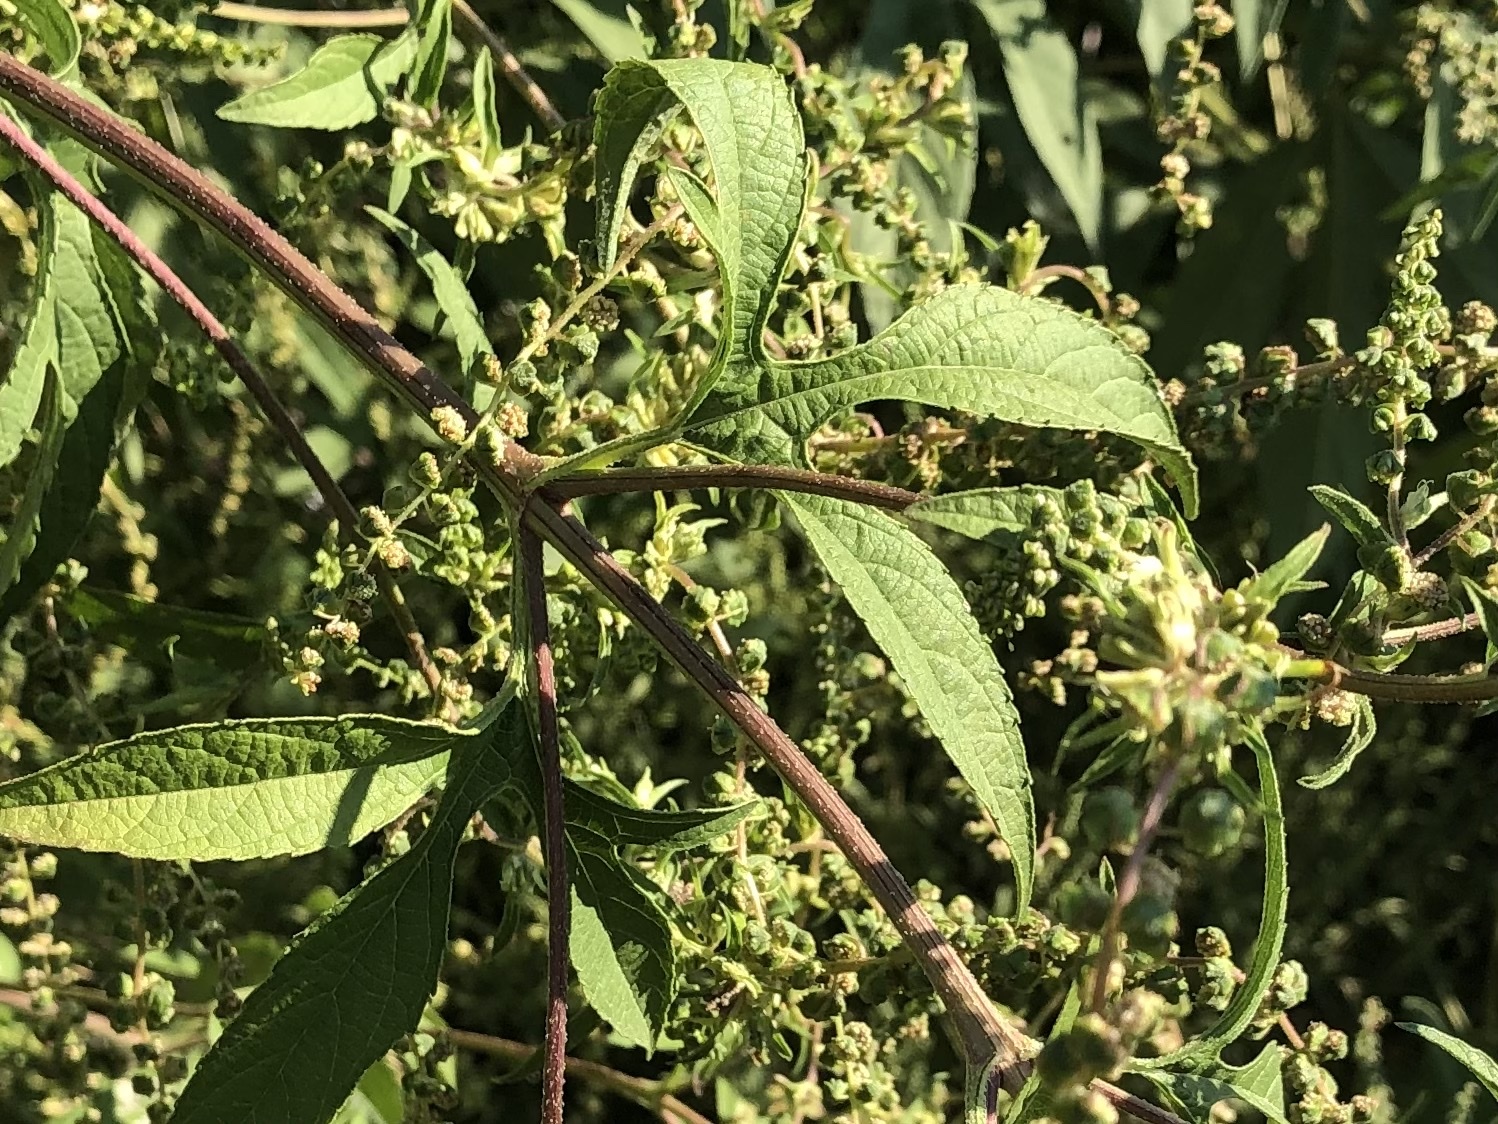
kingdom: Plantae
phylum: Tracheophyta
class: Magnoliopsida
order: Asterales
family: Asteraceae
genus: Ambrosia
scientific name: Ambrosia trifida
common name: Giant ragweed
